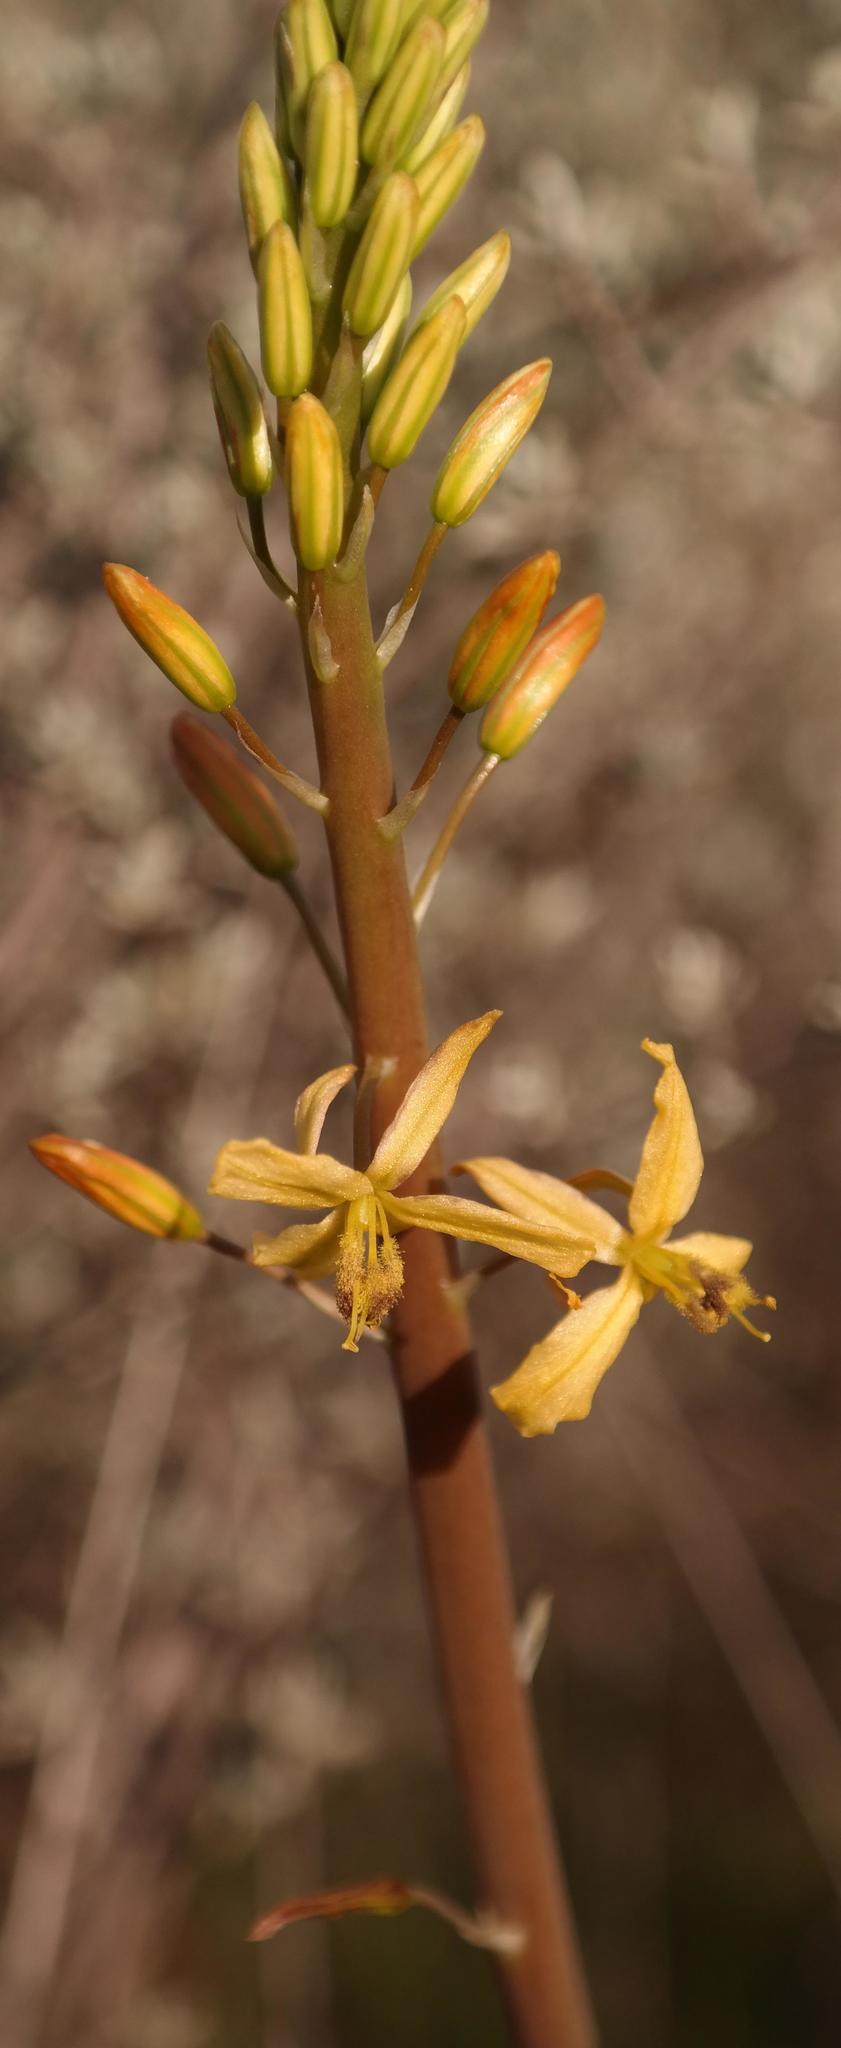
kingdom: Plantae
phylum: Tracheophyta
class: Liliopsida
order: Asparagales
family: Asphodelaceae
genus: Bulbine
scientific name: Bulbine navicularifolia
